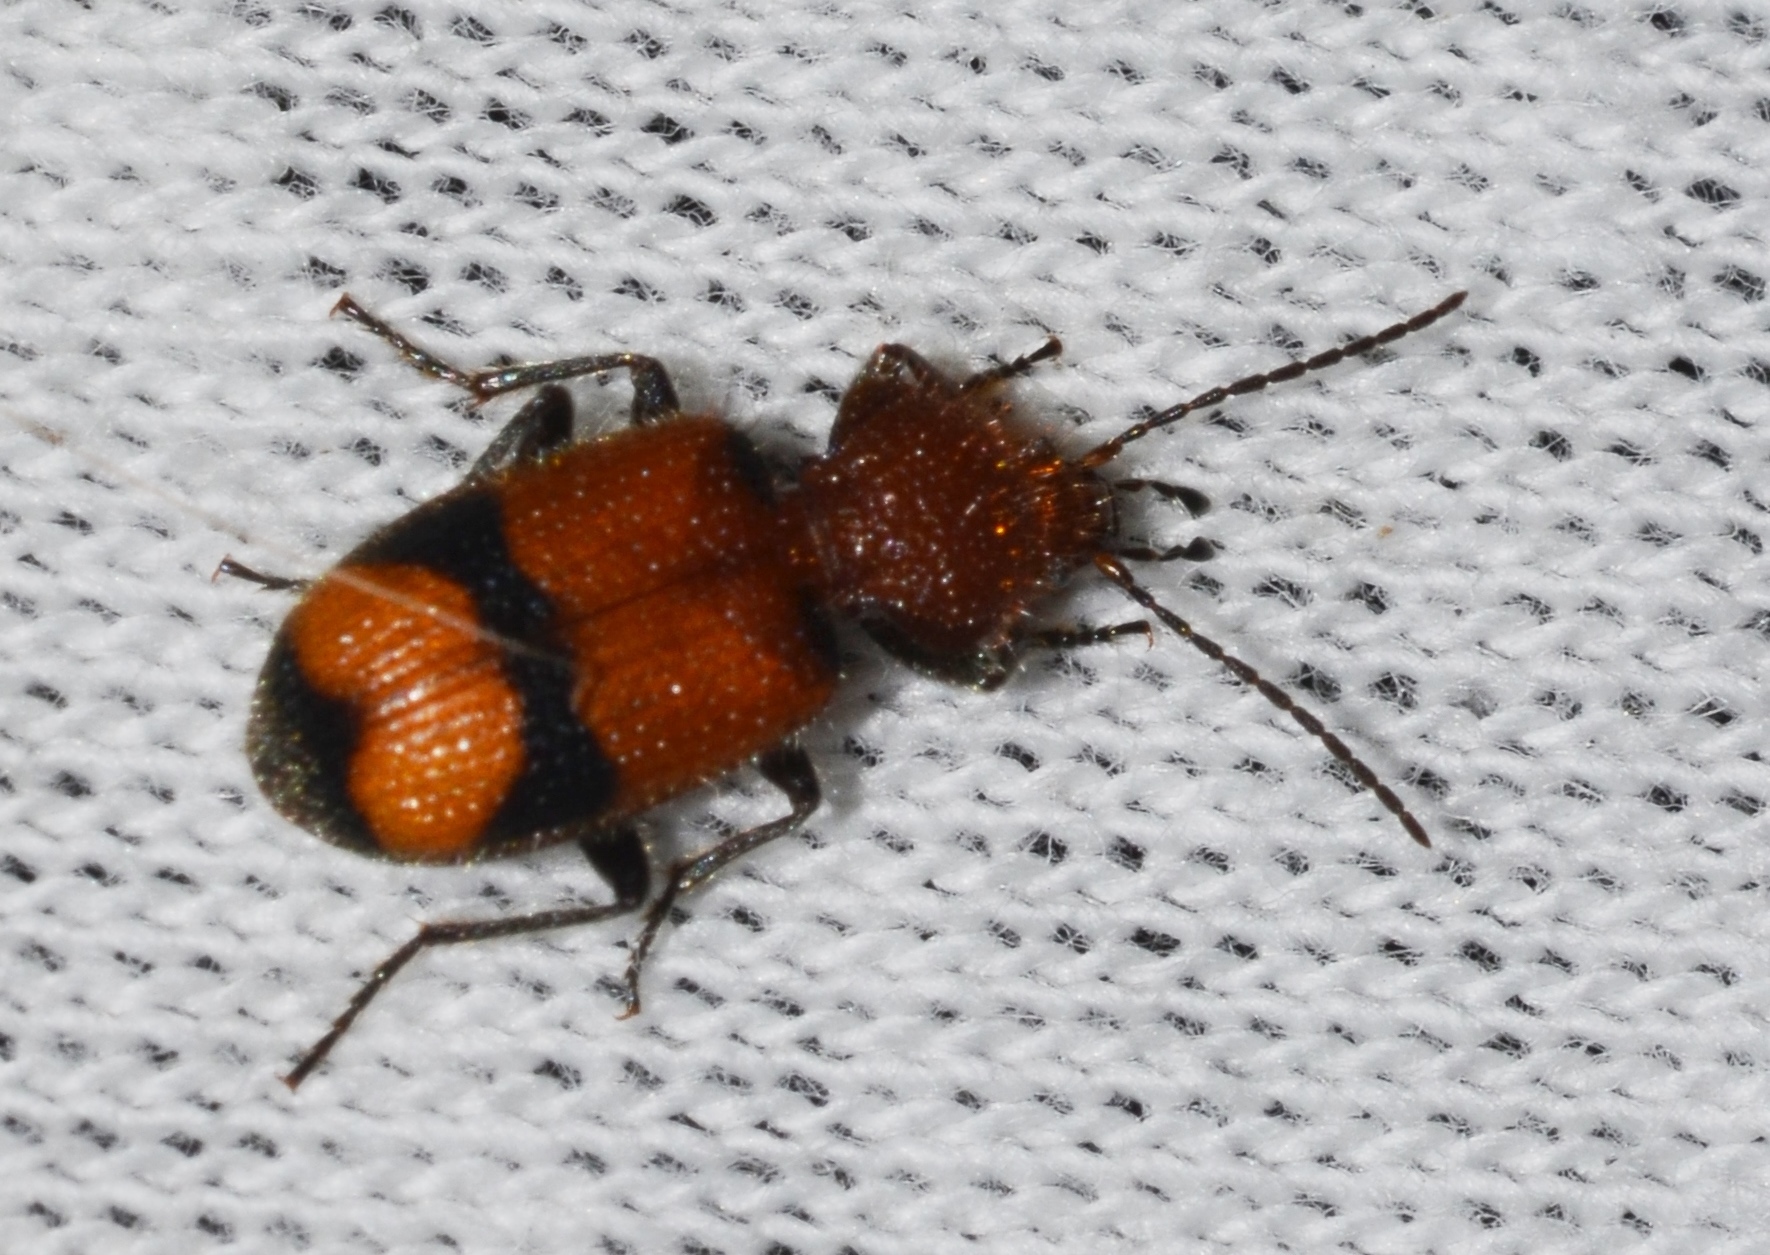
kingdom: Animalia
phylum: Arthropoda
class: Insecta
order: Coleoptera
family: Carabidae
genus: Panagaeus
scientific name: Panagaeus fasciatus
